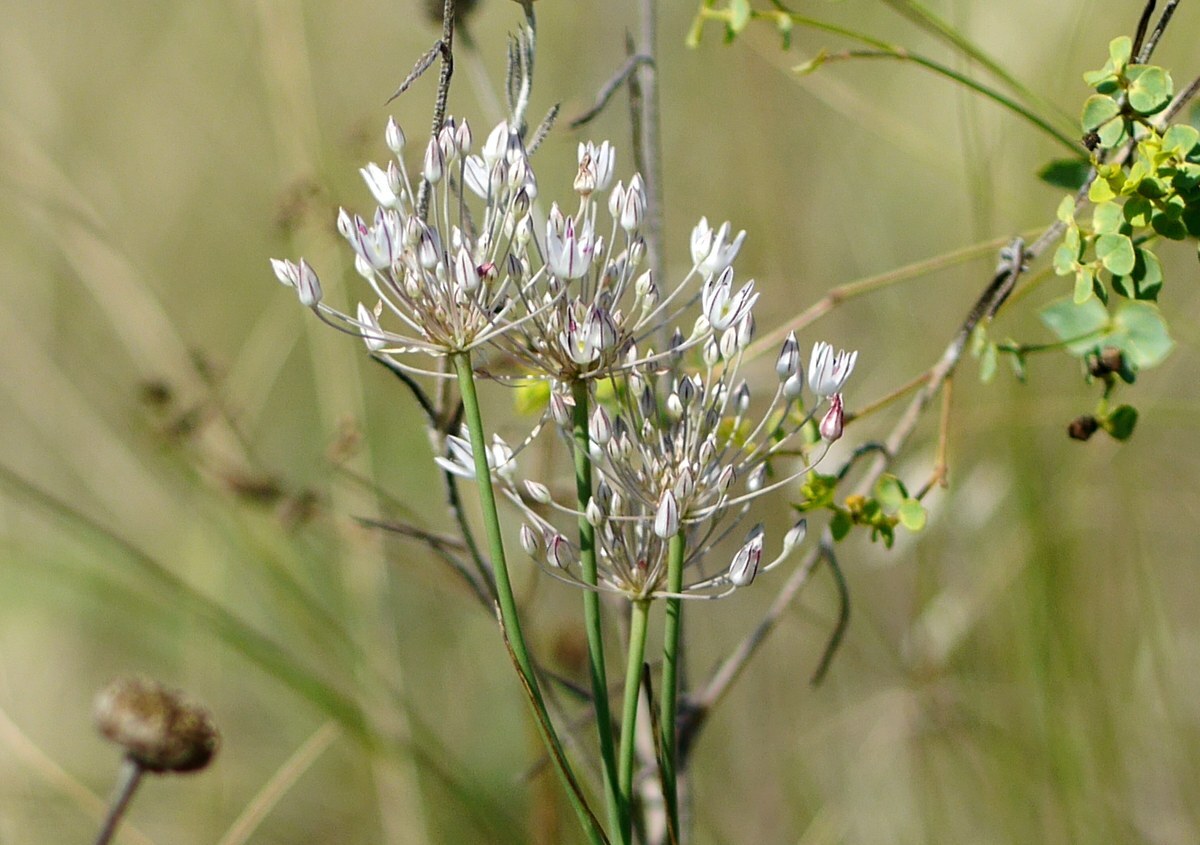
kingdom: Plantae
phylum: Tracheophyta
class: Liliopsida
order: Asparagales
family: Amaryllidaceae
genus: Allium
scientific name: Allium inaequale
